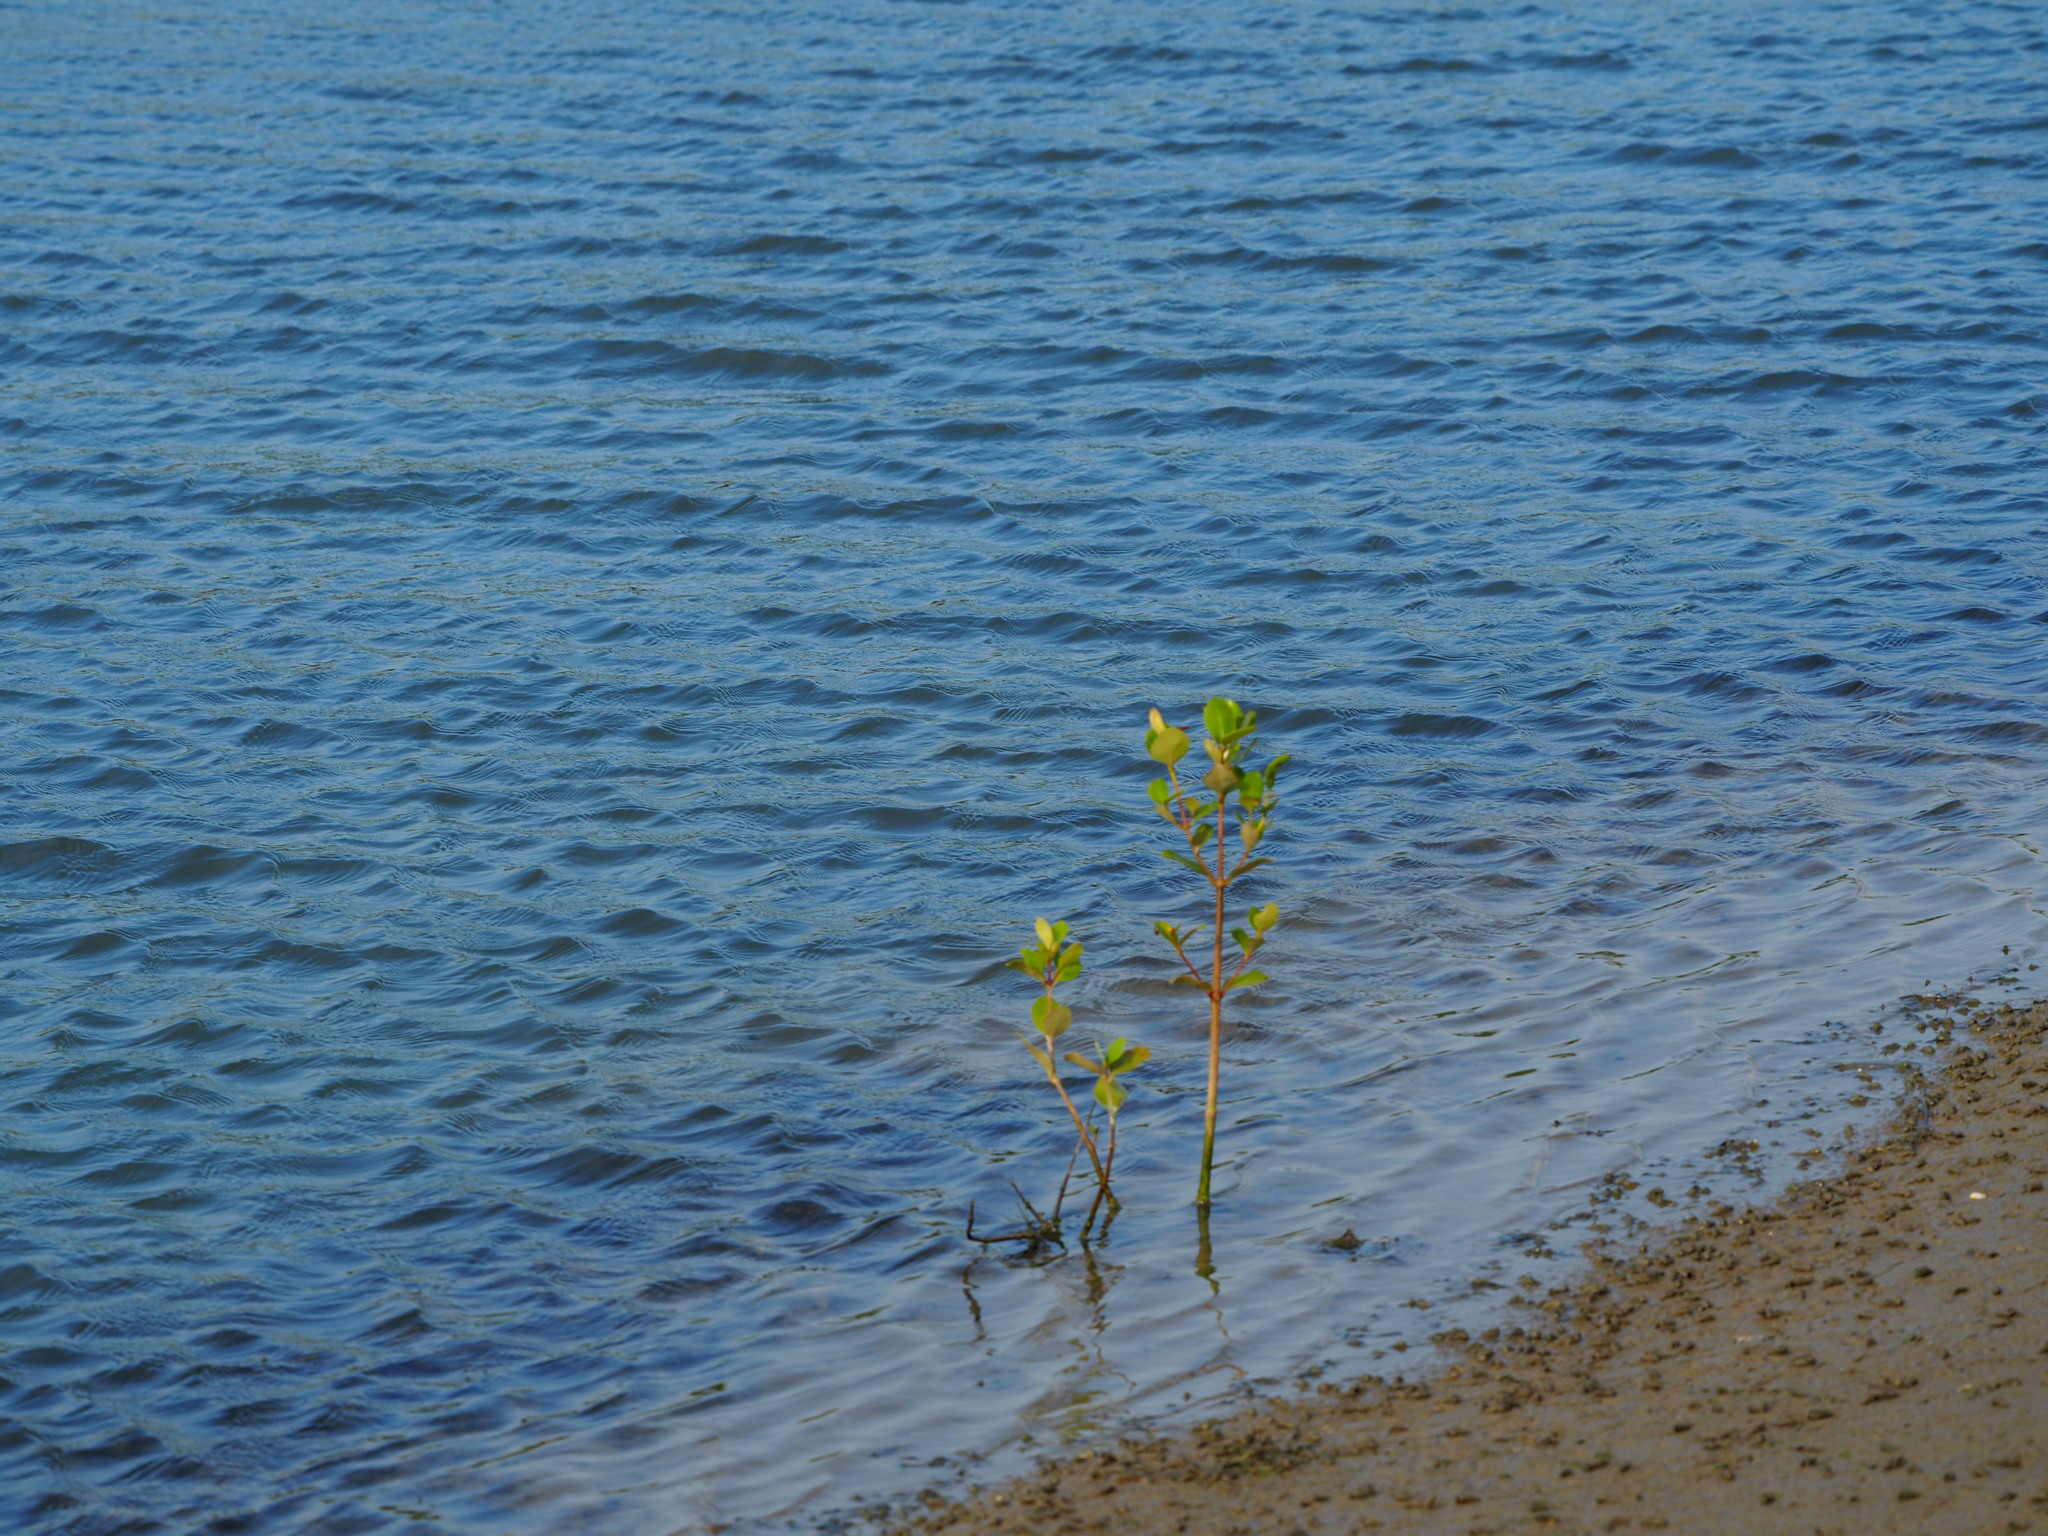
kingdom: Plantae
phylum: Tracheophyta
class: Magnoliopsida
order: Lamiales
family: Acanthaceae
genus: Avicennia
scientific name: Avicennia marina
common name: Gray mangrove
